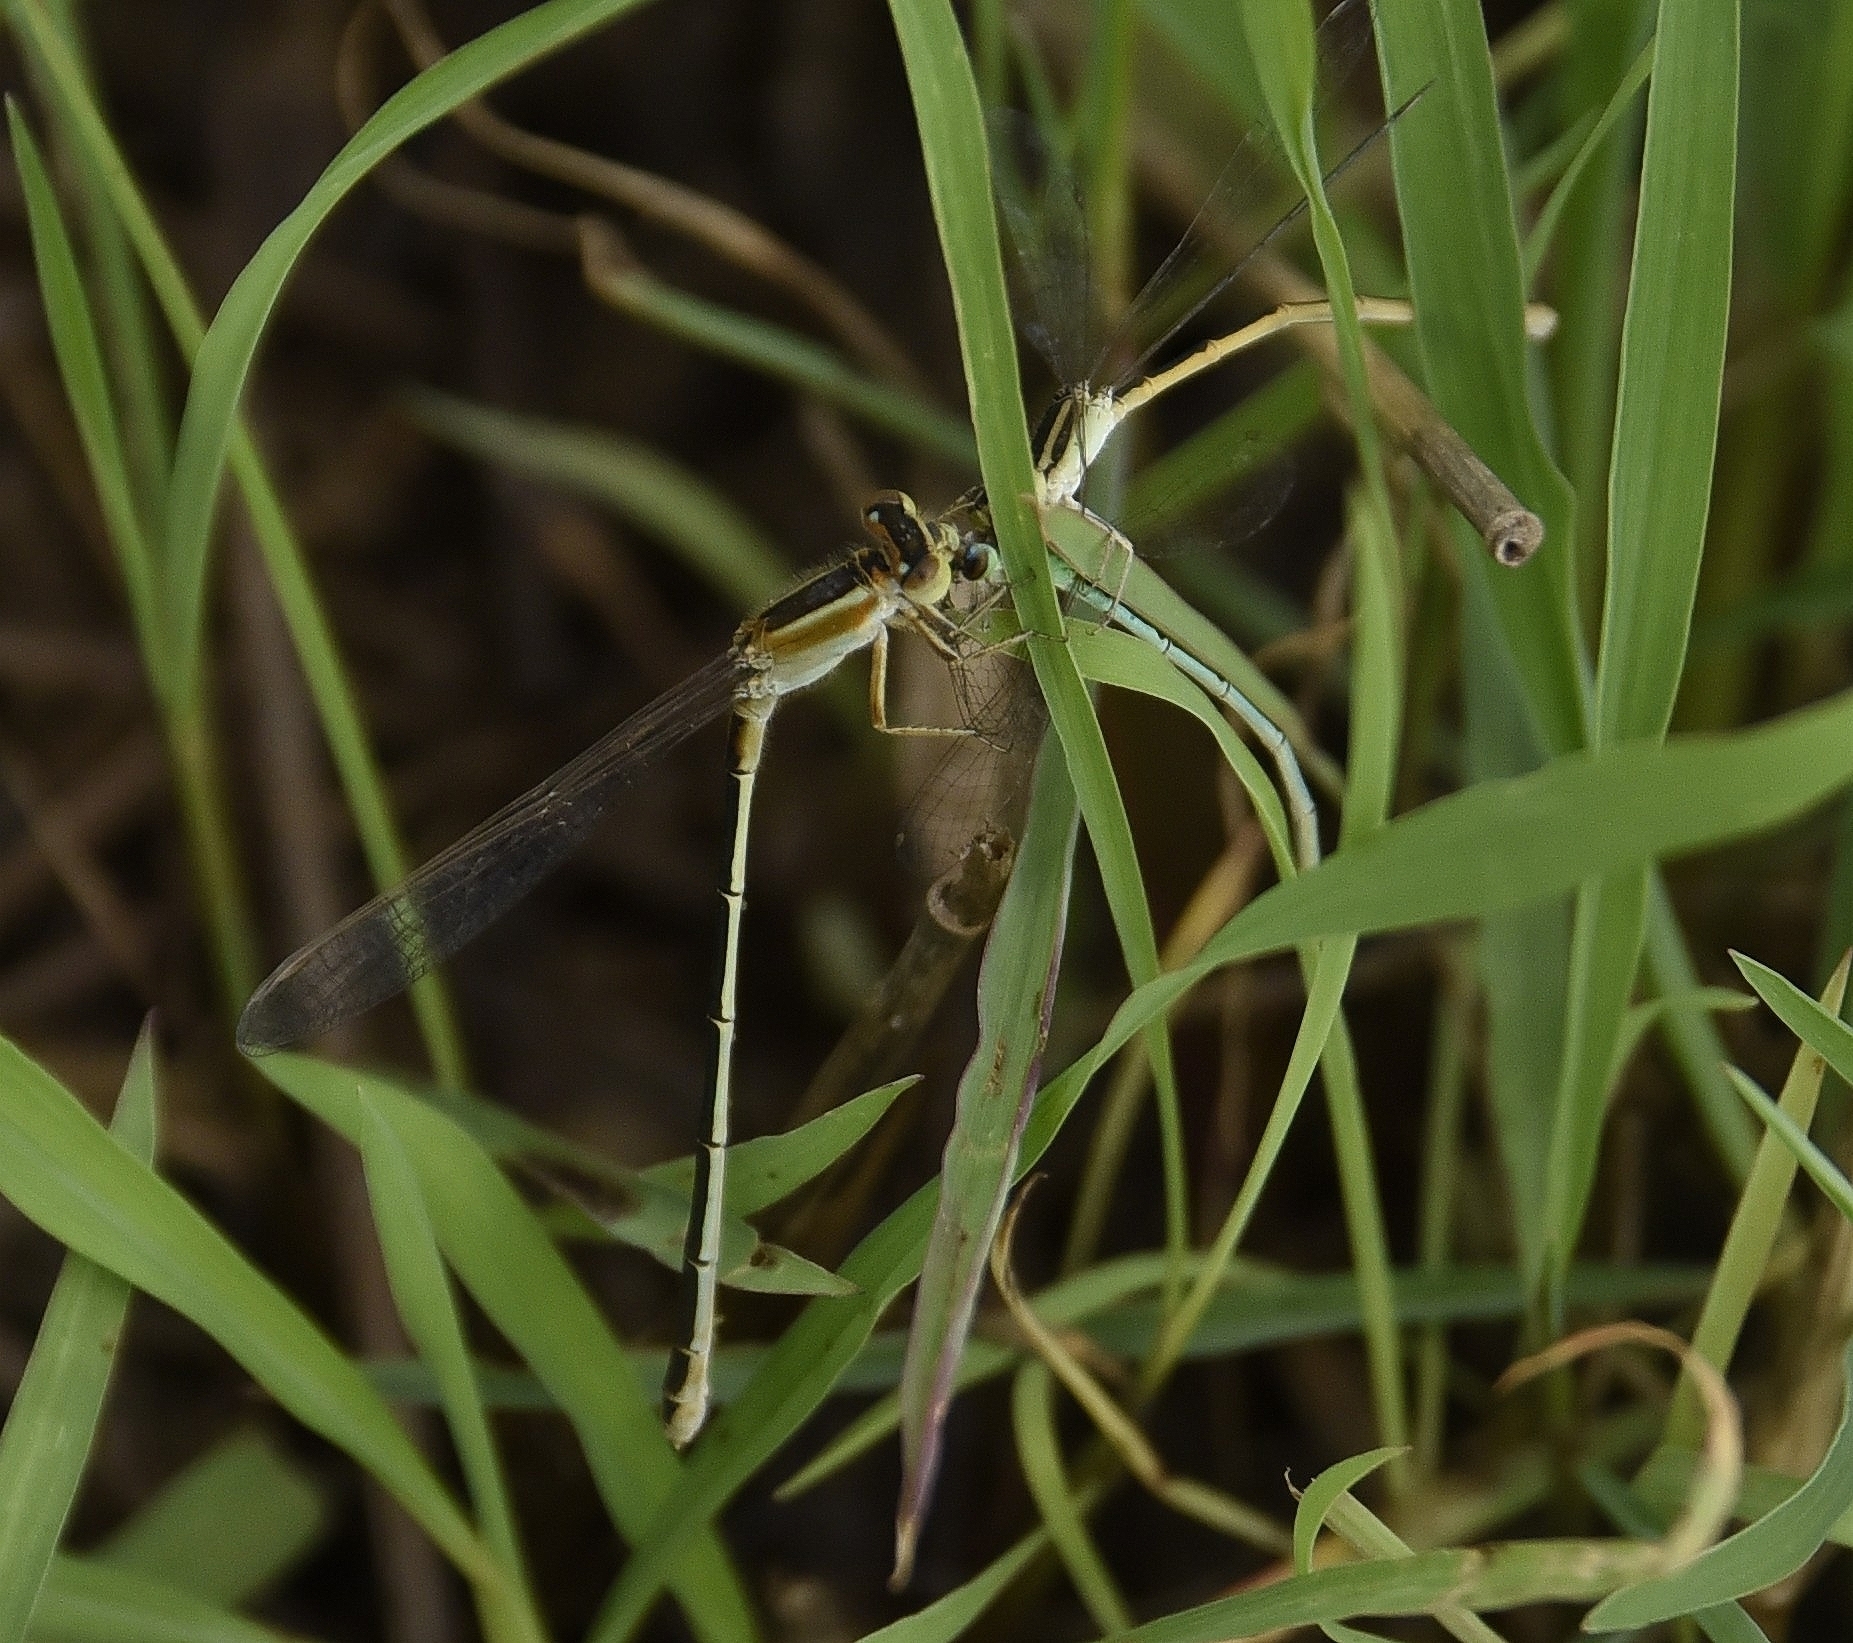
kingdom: Animalia
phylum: Arthropoda
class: Insecta
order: Odonata
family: Coenagrionidae
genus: Ischnura
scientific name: Ischnura senegalensis
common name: Tropical bluetail
